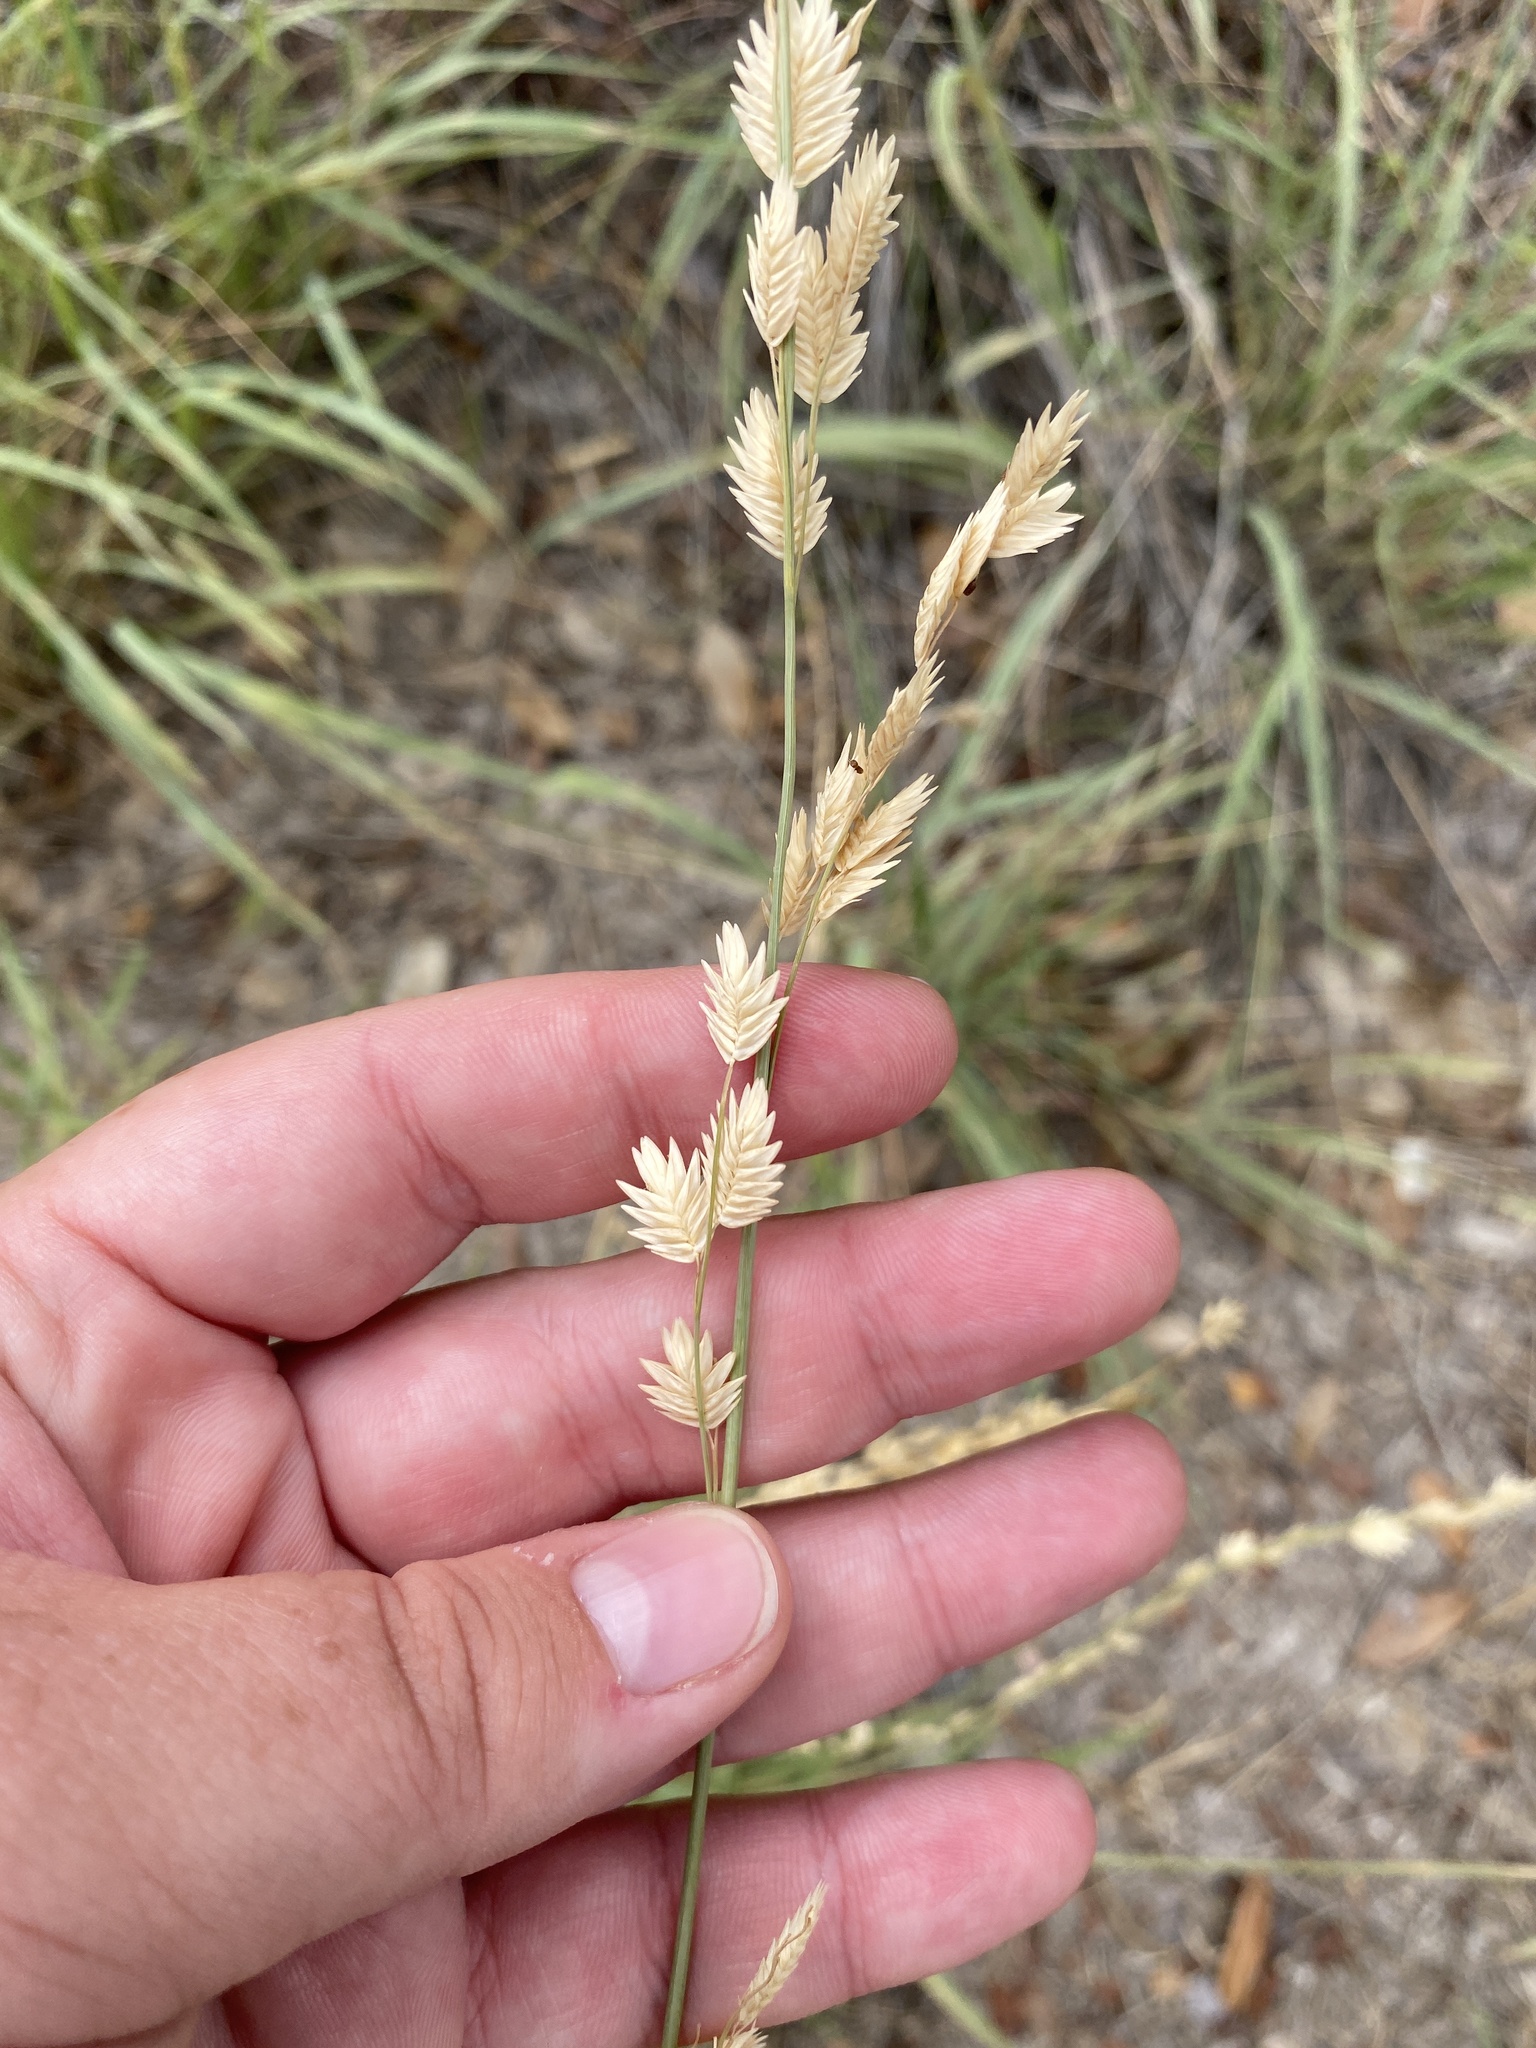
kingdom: Plantae
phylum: Tracheophyta
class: Liliopsida
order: Poales
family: Poaceae
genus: Eragrostis
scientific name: Eragrostis superba
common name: Wilman lovegrass
